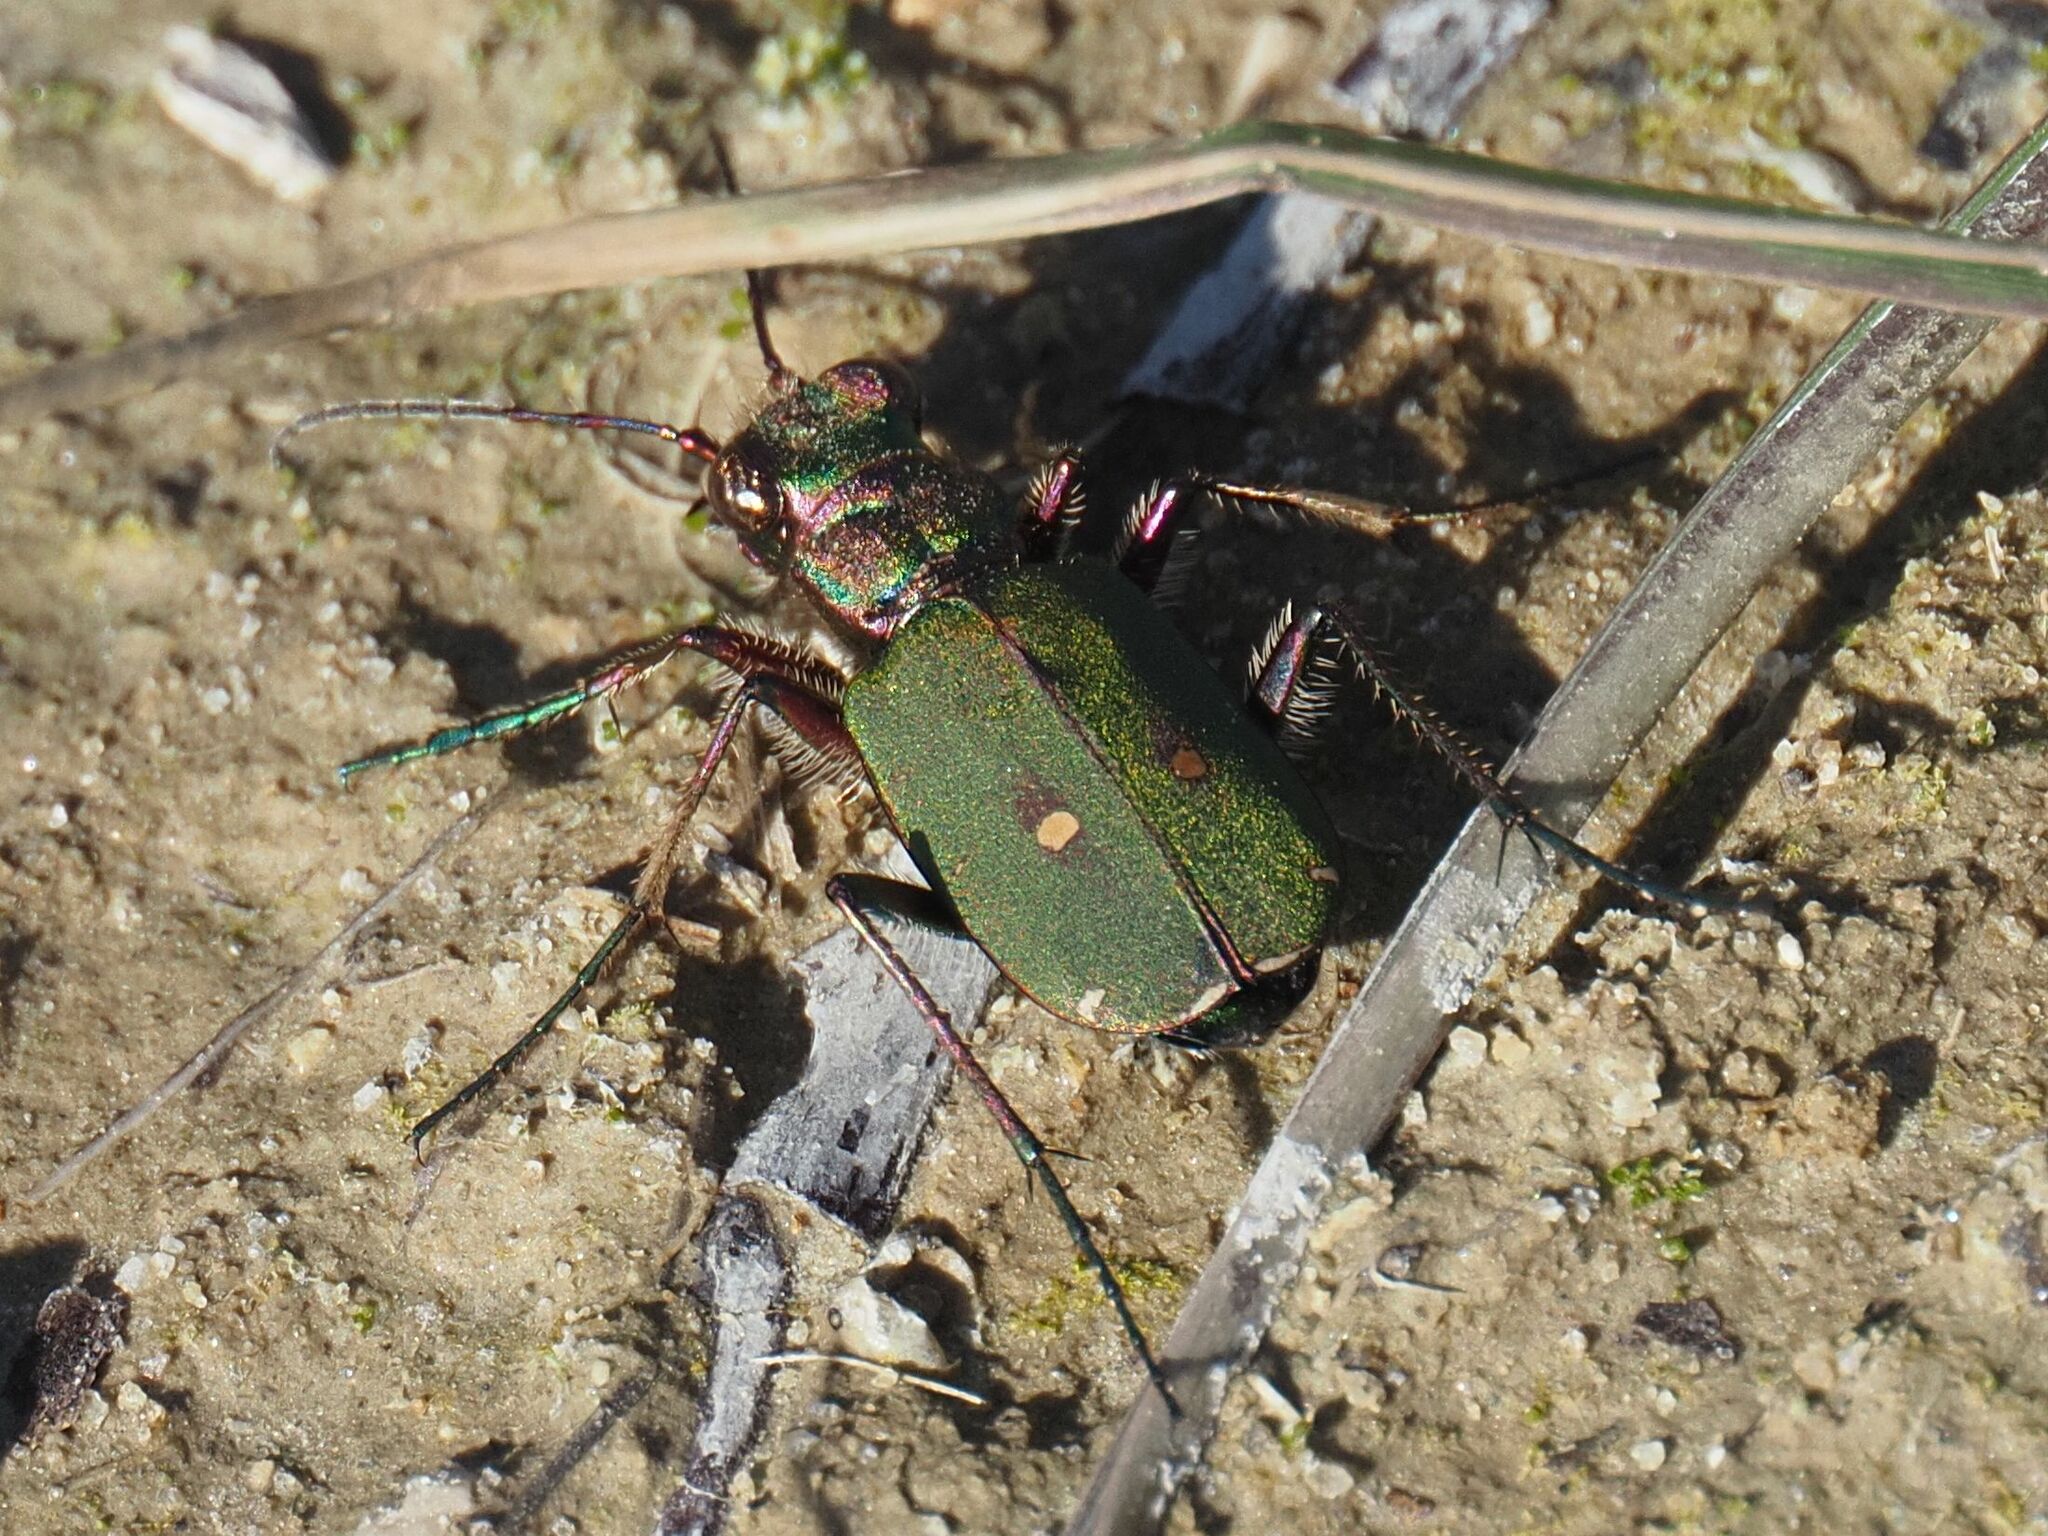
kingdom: Animalia
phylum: Arthropoda
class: Insecta
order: Coleoptera
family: Carabidae
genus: Cicindela
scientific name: Cicindela campestris
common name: Common tiger beetle
